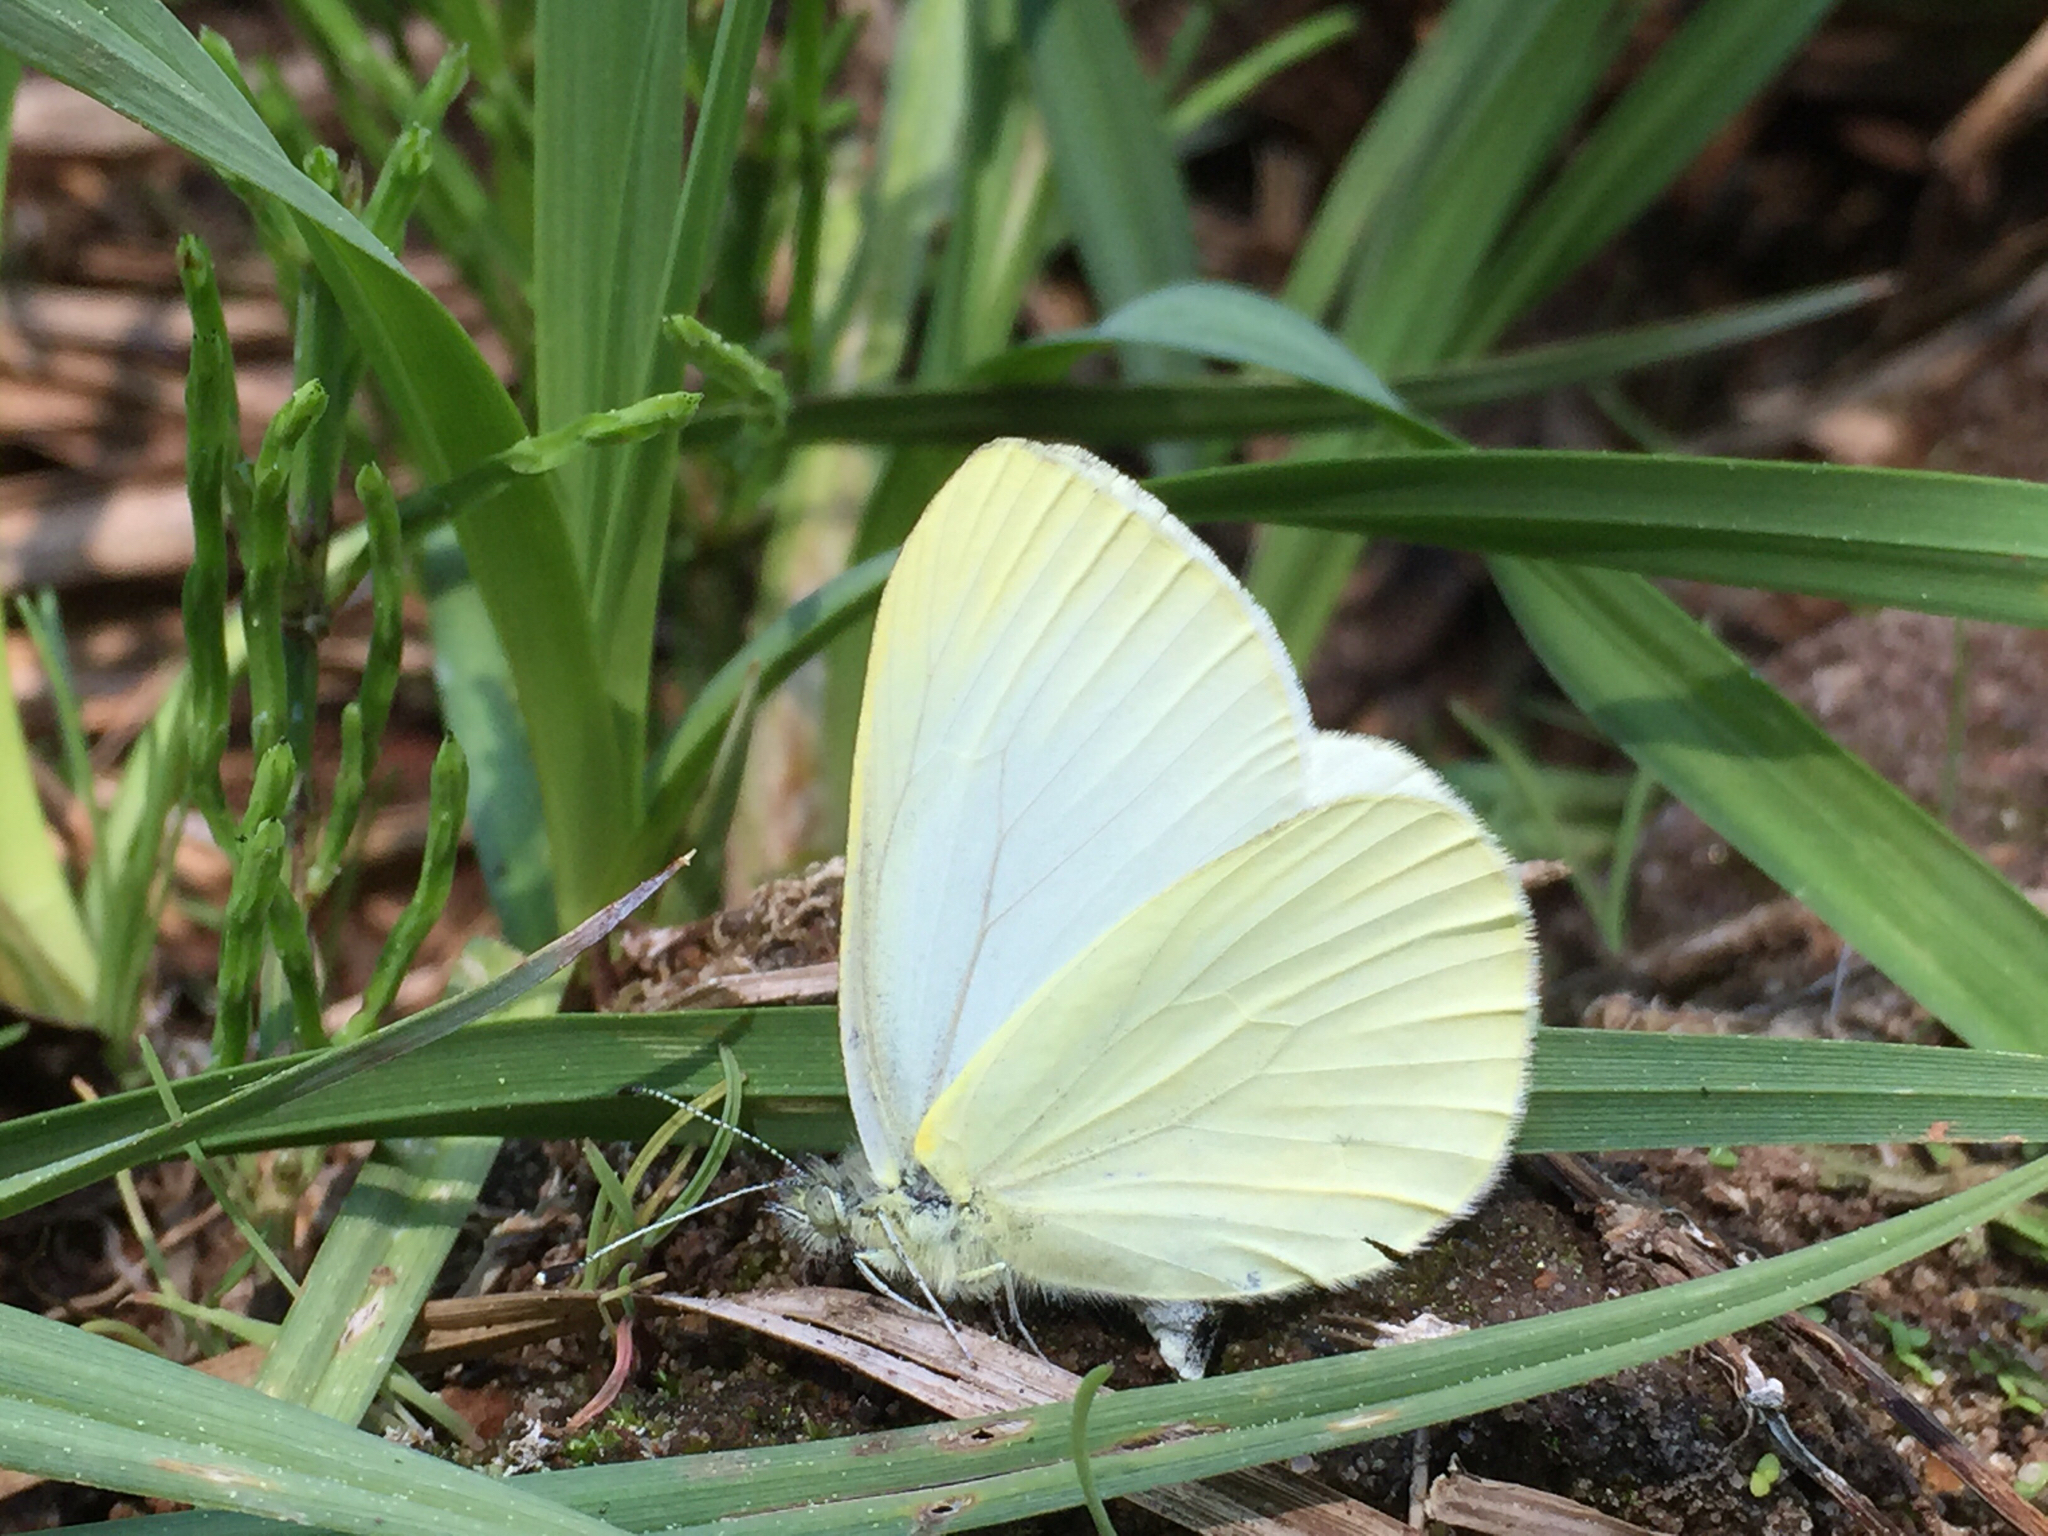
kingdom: Animalia
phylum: Arthropoda
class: Insecta
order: Lepidoptera
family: Pieridae
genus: Pieris
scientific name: Pieris marginalis
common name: Margined white
